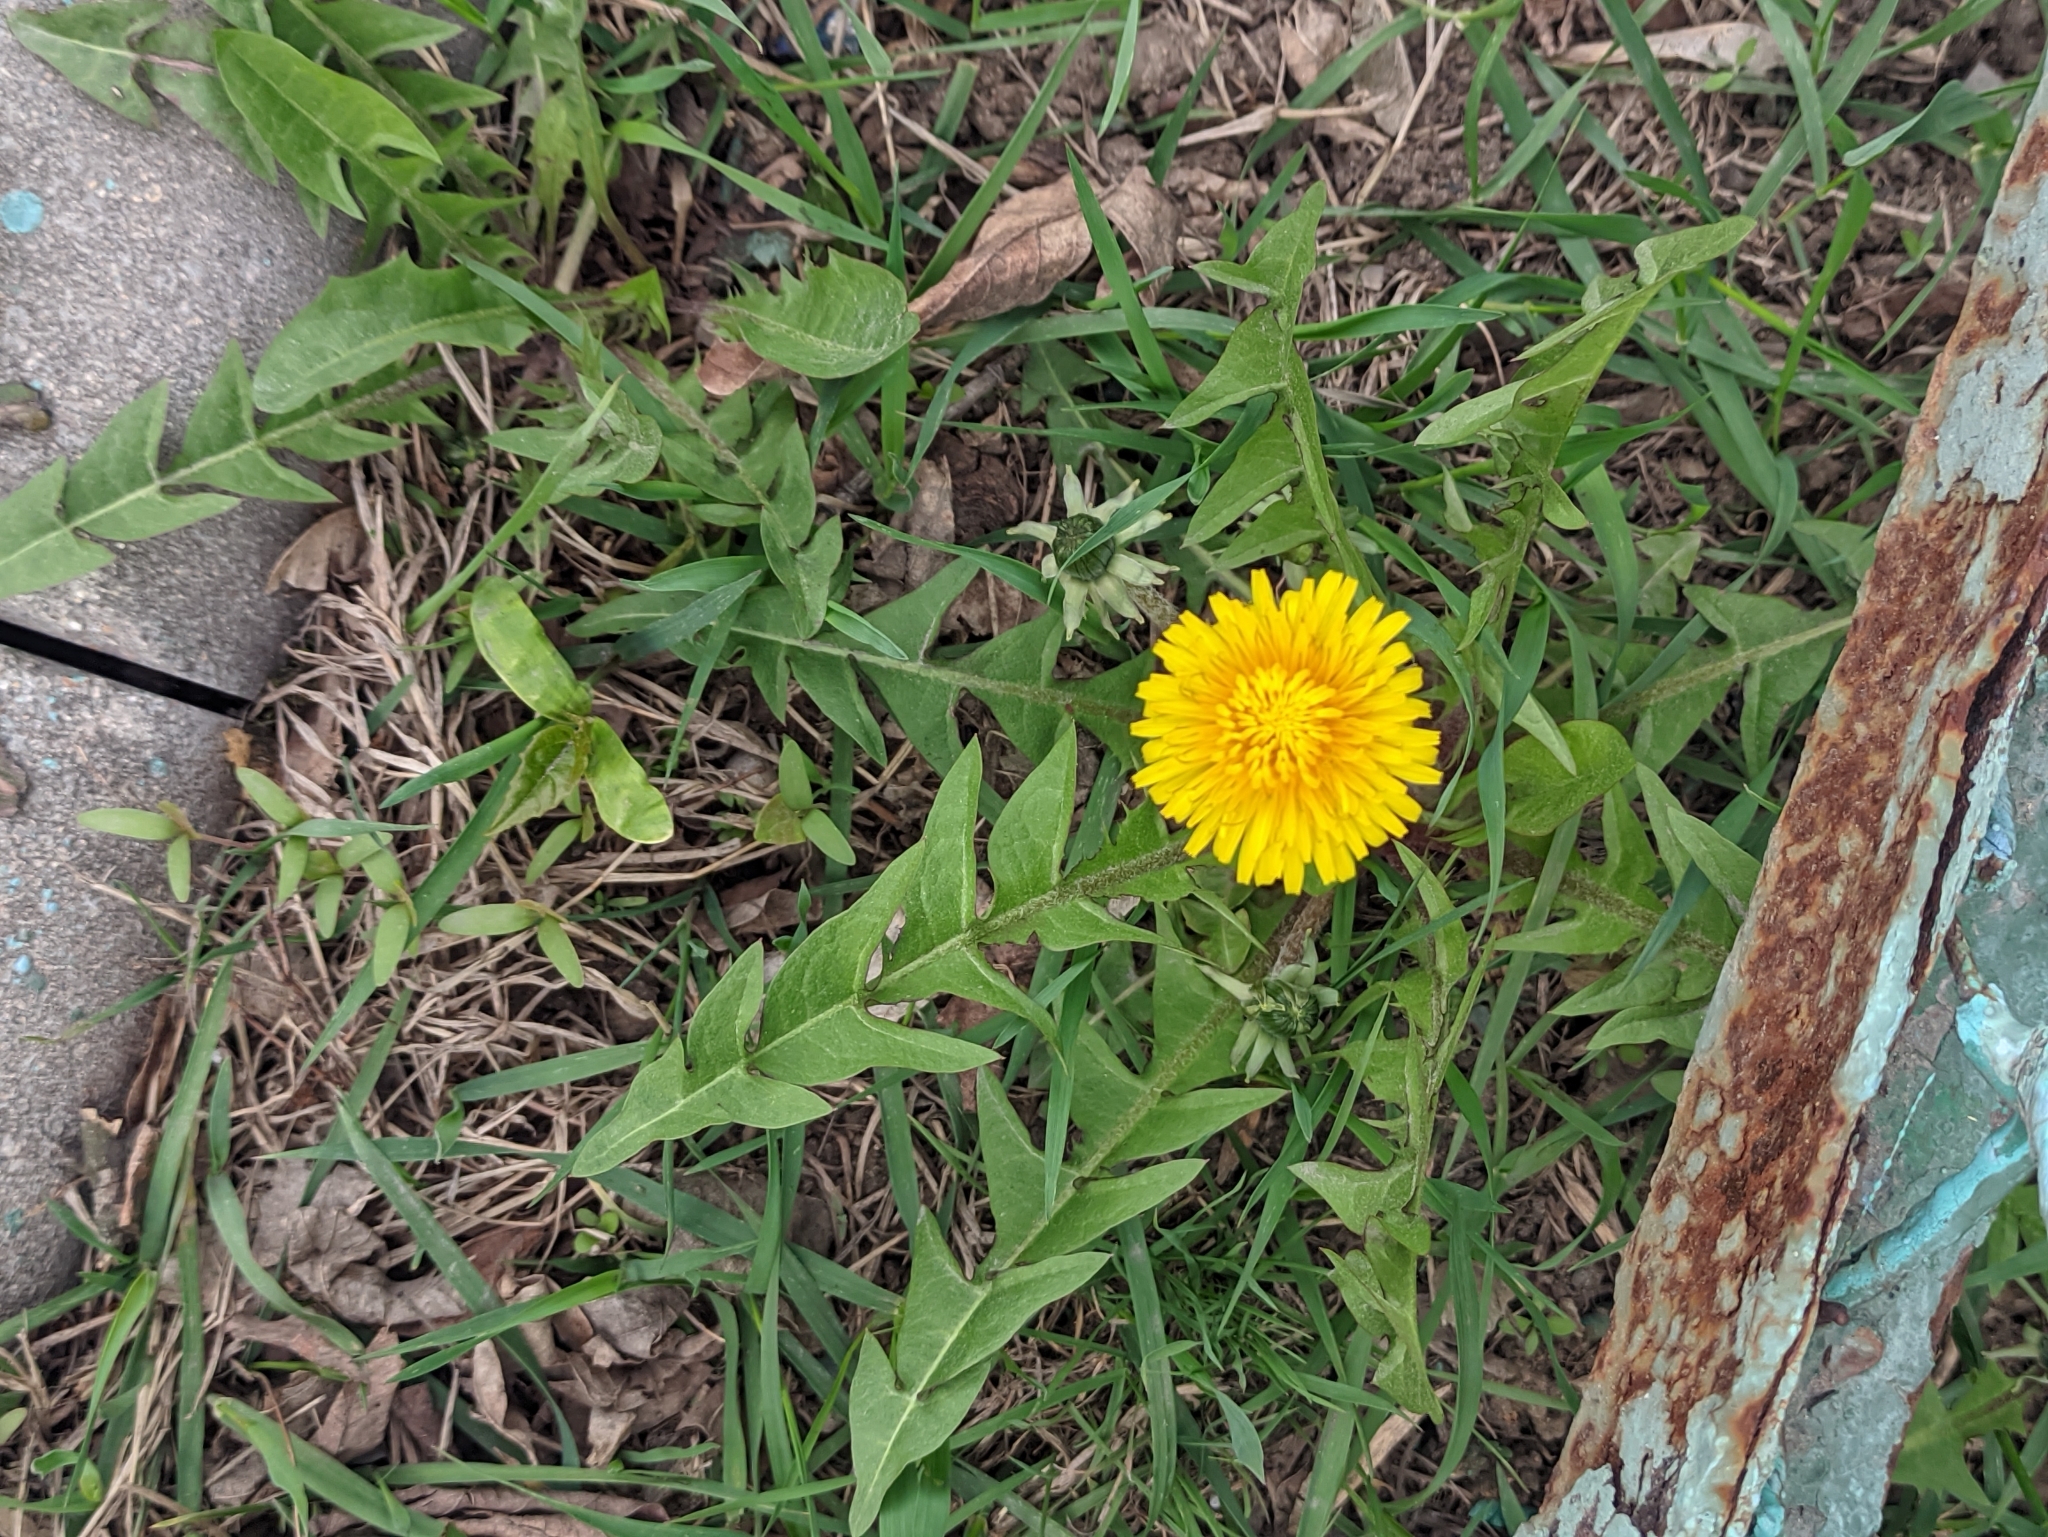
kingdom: Plantae
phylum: Tracheophyta
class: Magnoliopsida
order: Asterales
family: Asteraceae
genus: Taraxacum
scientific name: Taraxacum officinale
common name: Common dandelion
